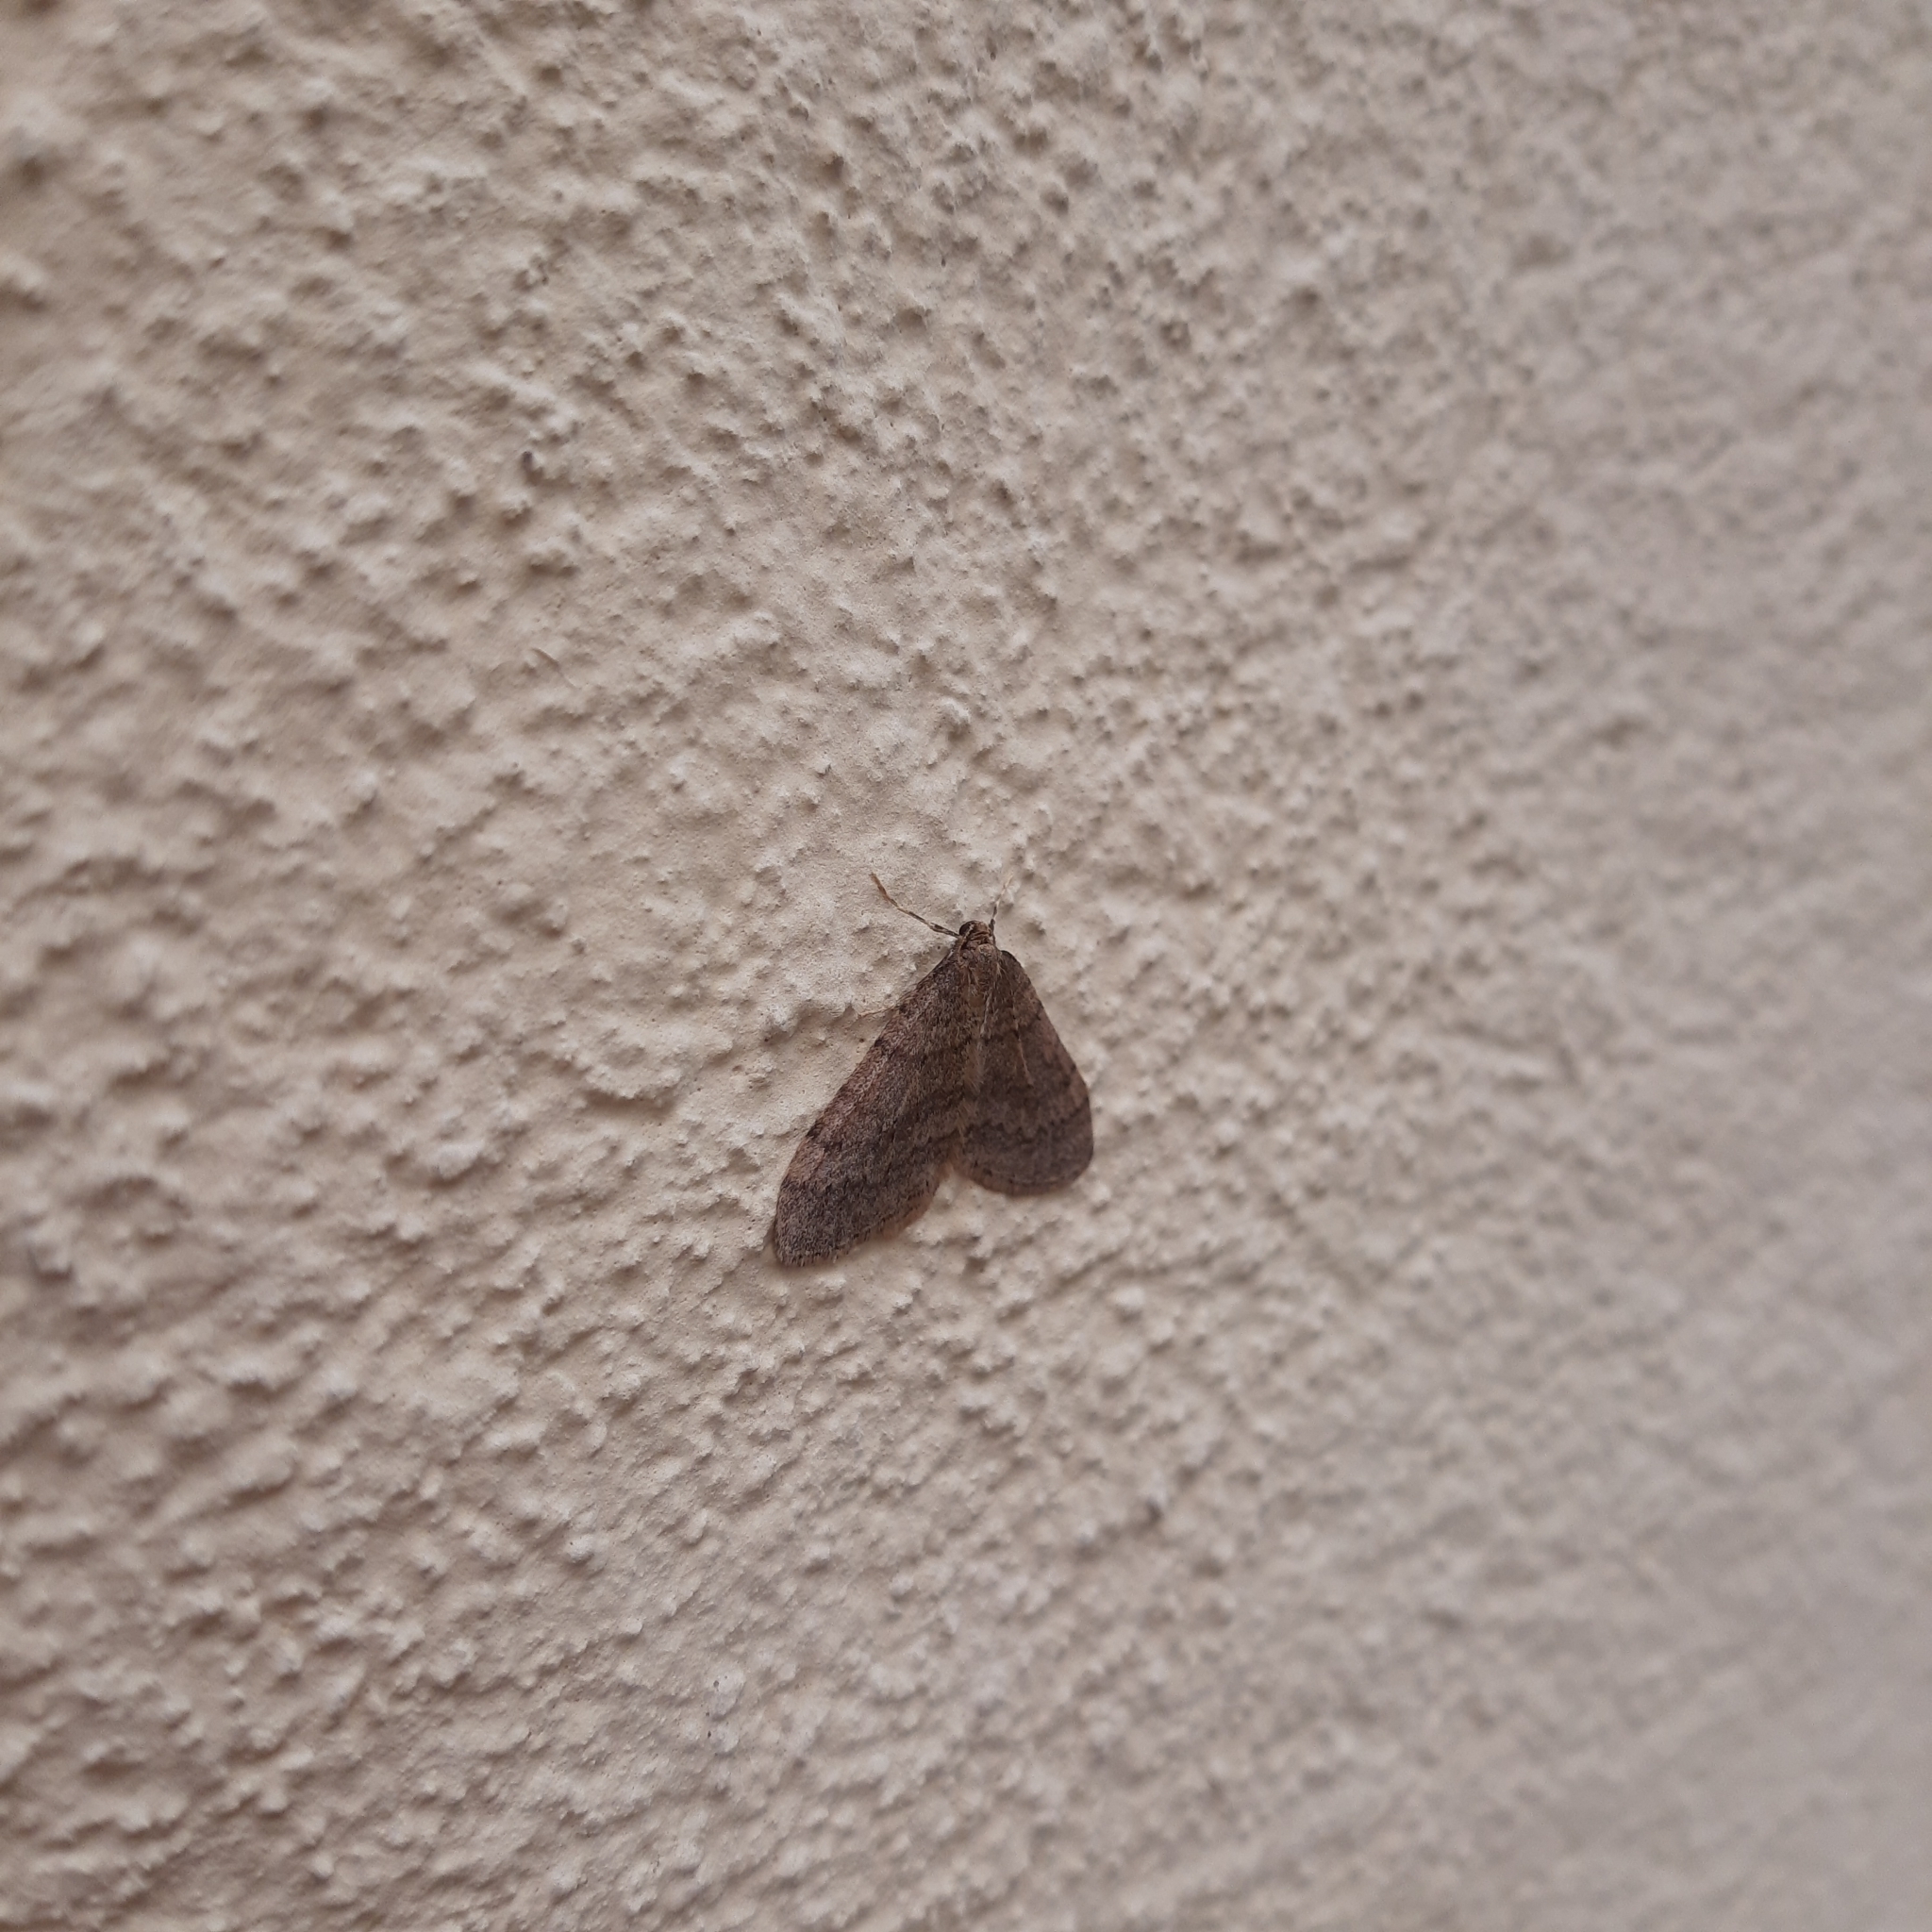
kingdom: Animalia
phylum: Arthropoda
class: Insecta
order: Lepidoptera
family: Geometridae
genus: Operophtera
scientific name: Operophtera brumata
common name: Winter moth
